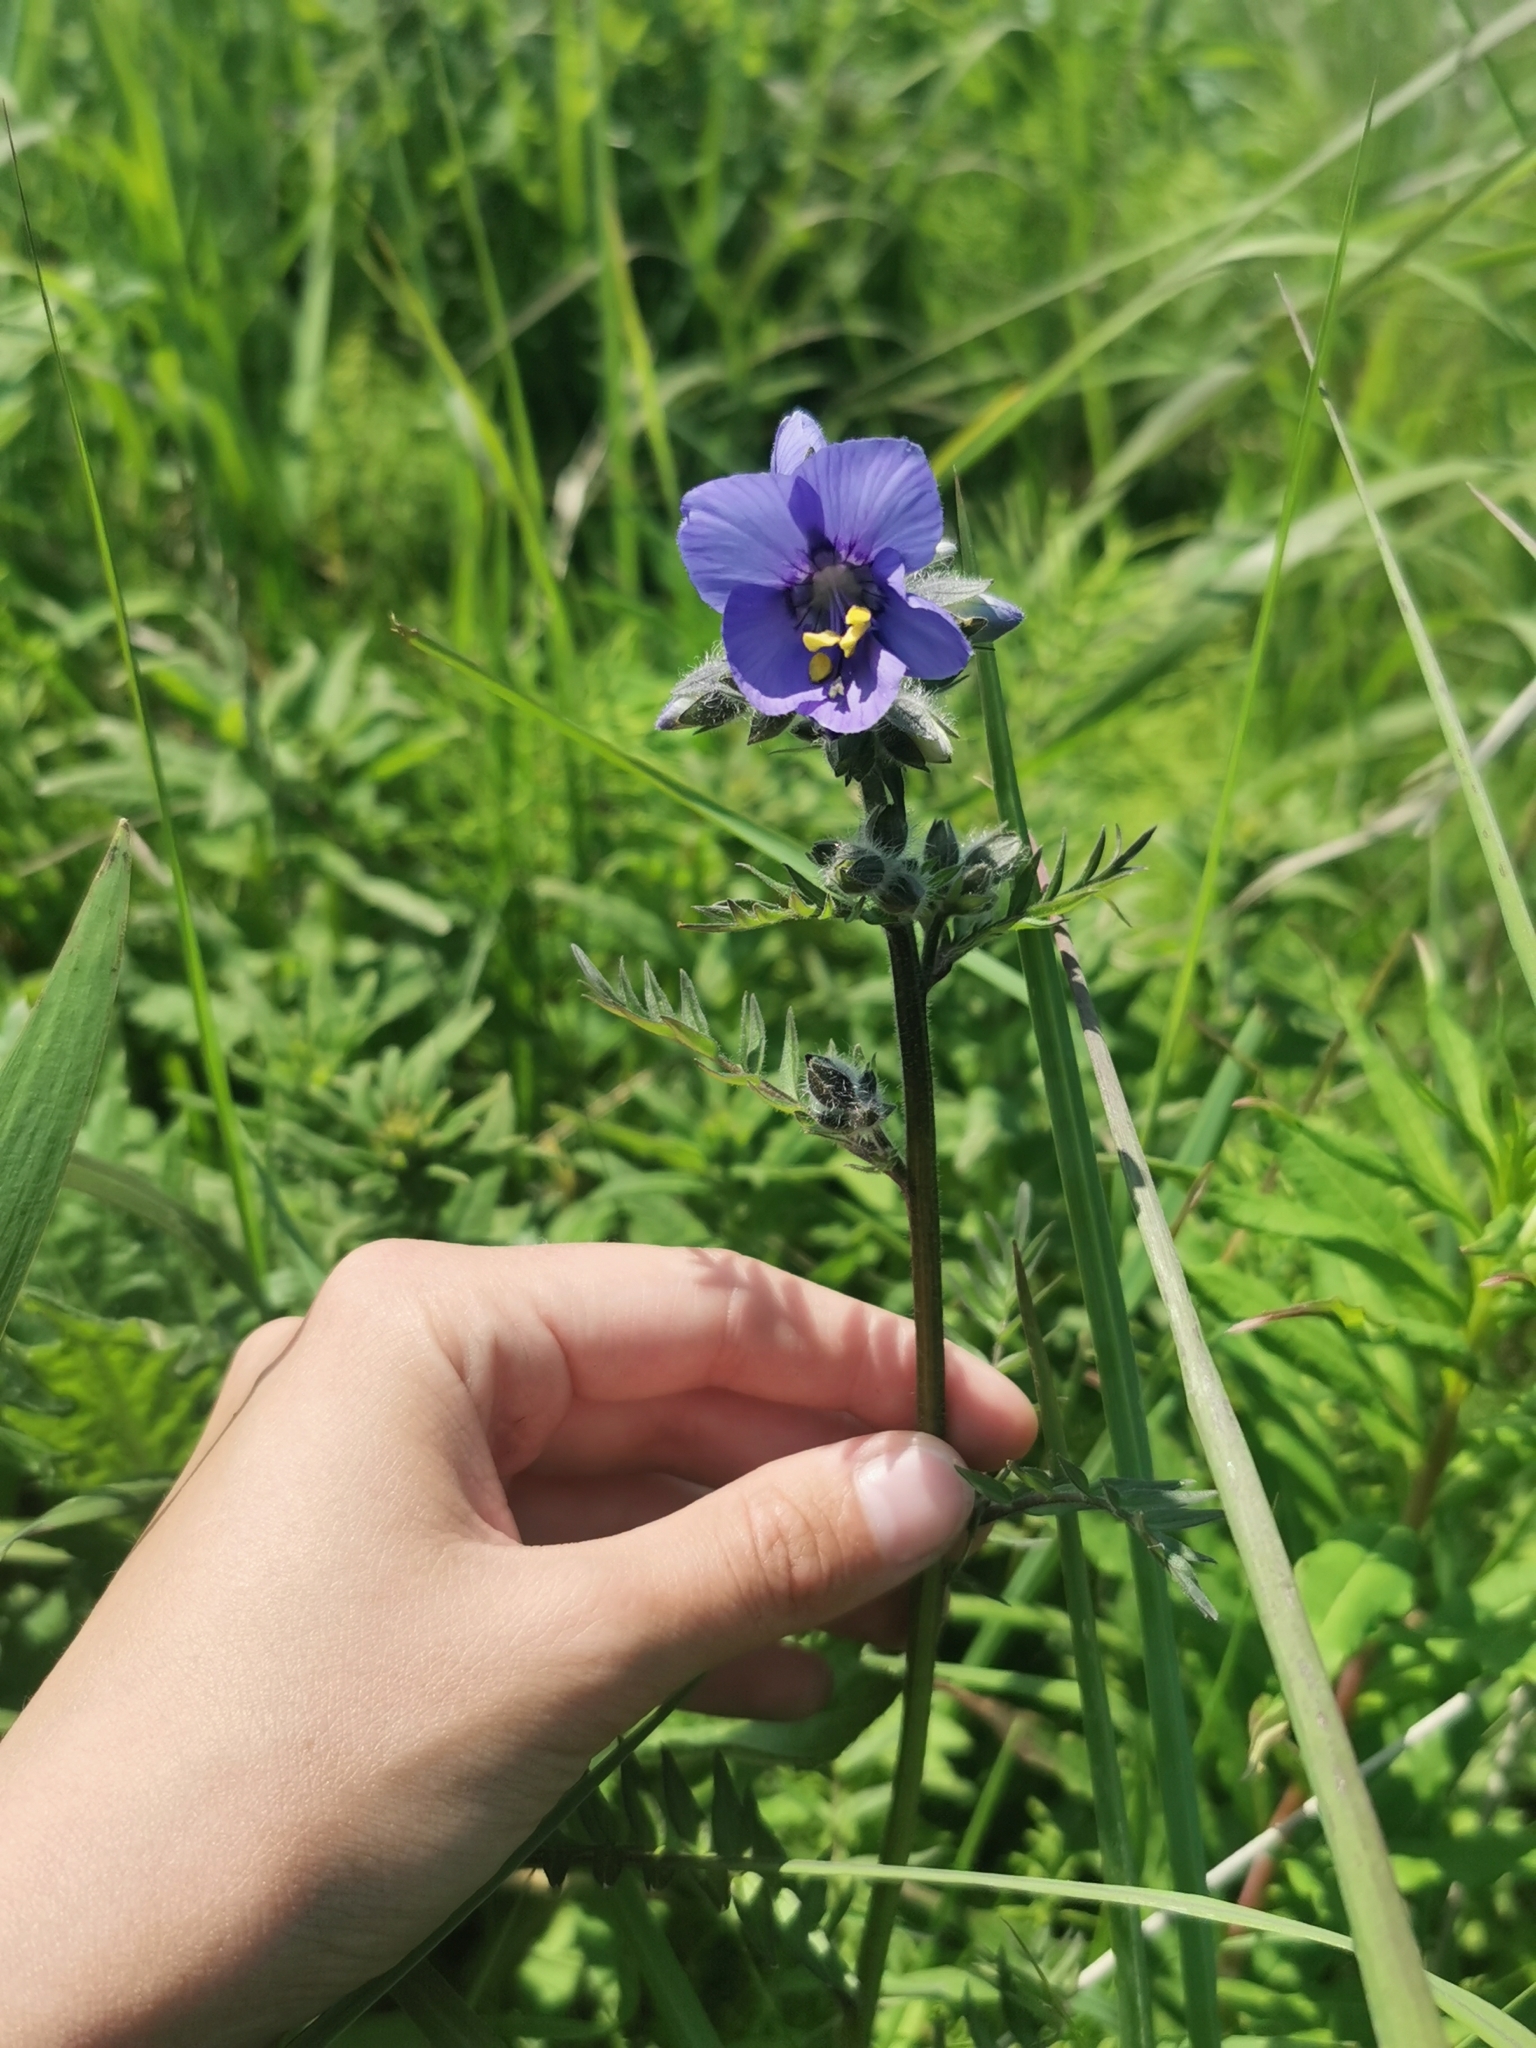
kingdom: Plantae
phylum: Tracheophyta
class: Magnoliopsida
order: Ericales
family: Polemoniaceae
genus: Polemonium
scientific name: Polemonium acutiflorum
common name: Tall jacob's-ladder
